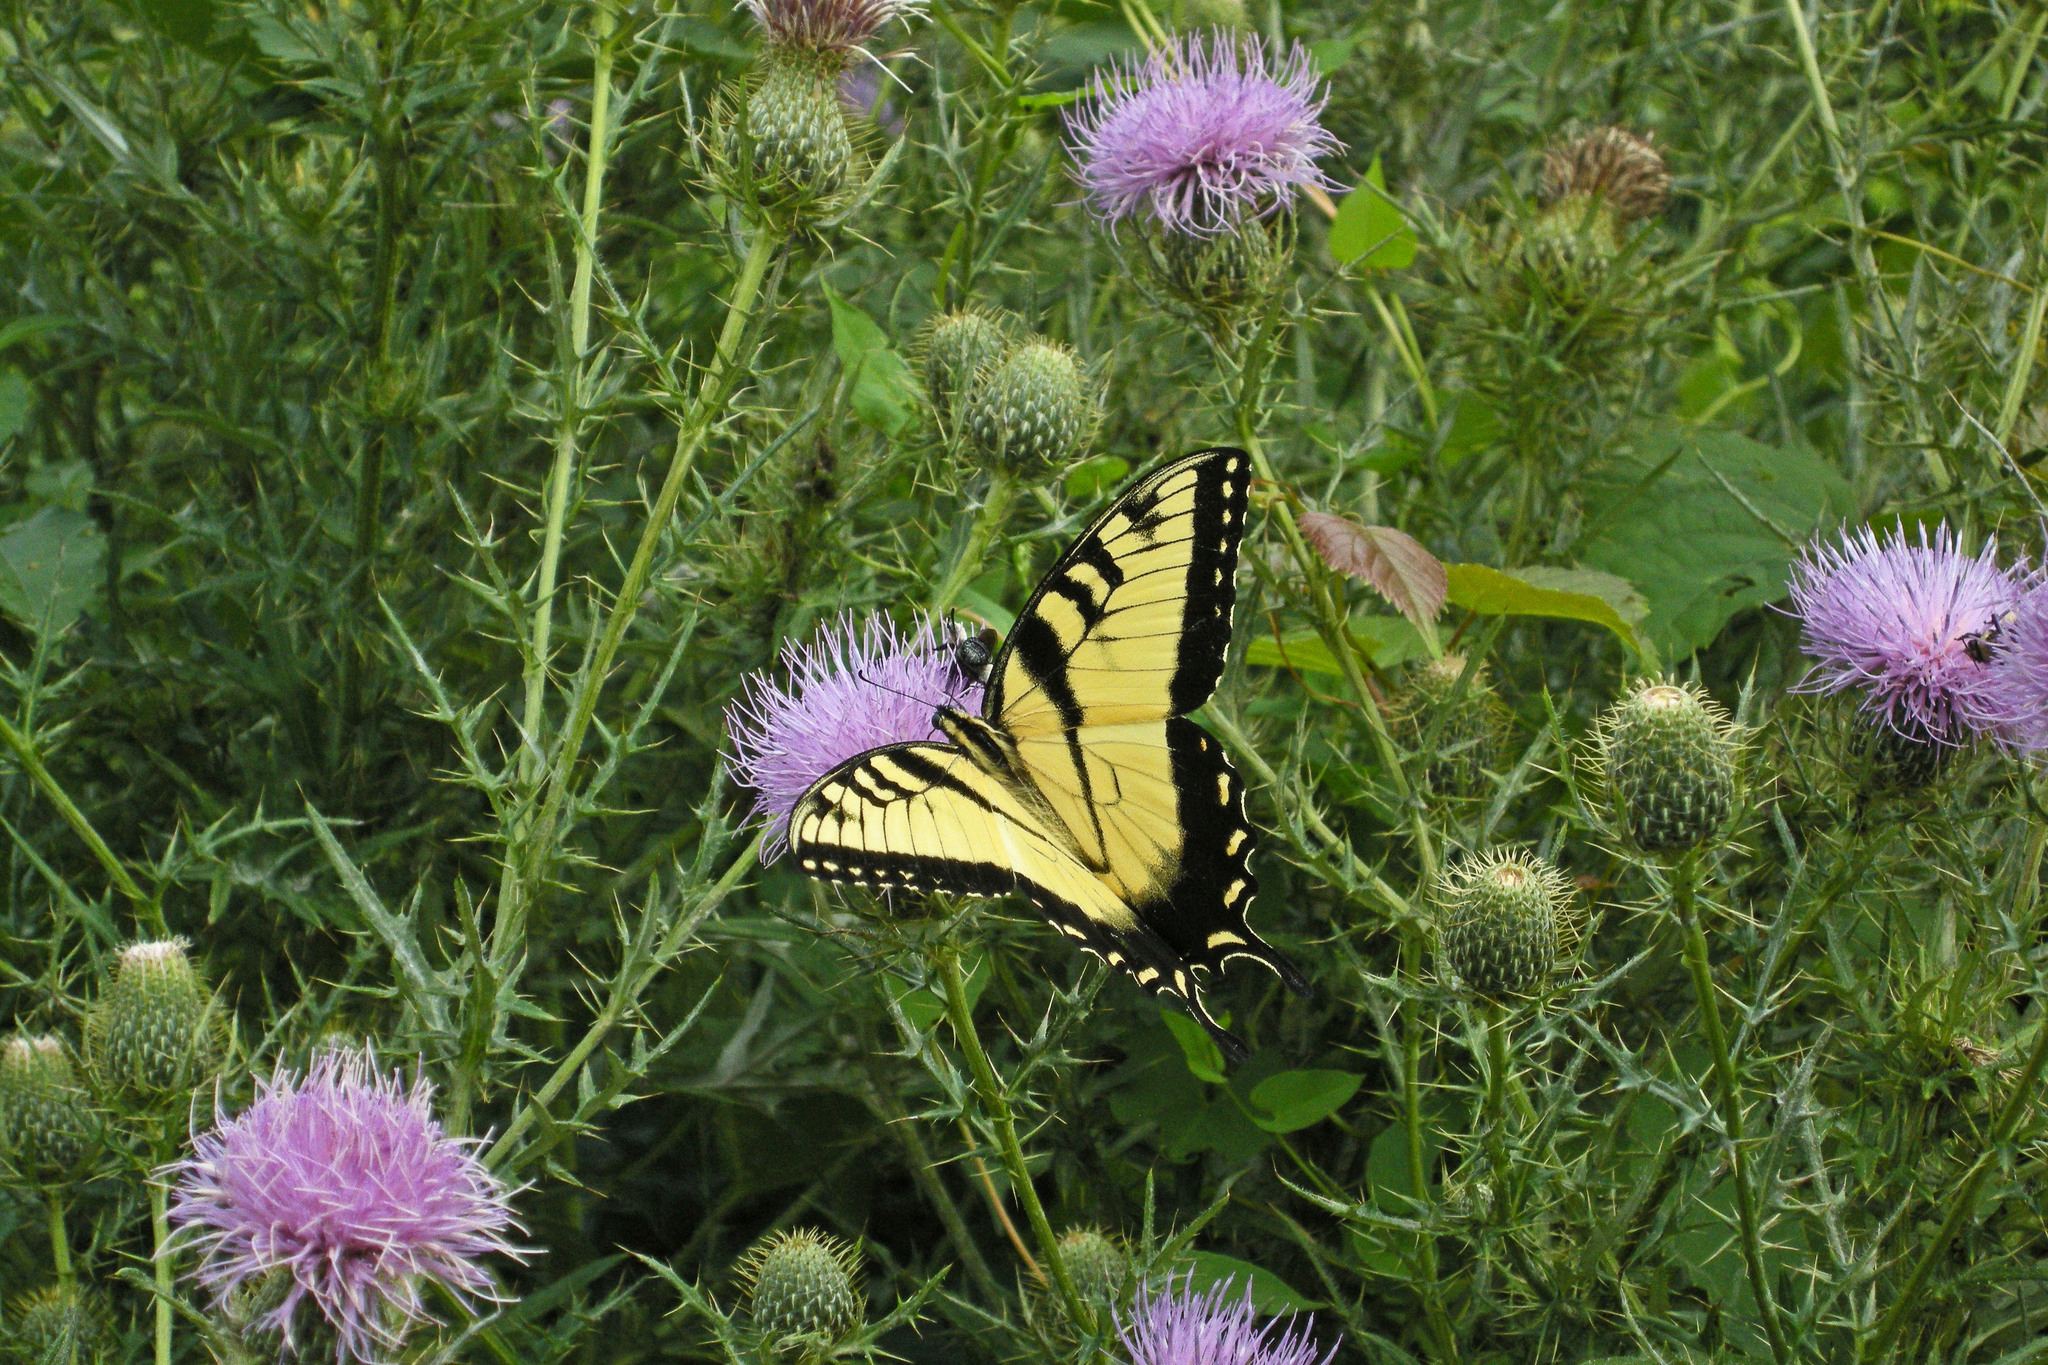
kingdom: Animalia
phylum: Arthropoda
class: Insecta
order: Lepidoptera
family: Papilionidae
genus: Papilio
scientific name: Papilio glaucus
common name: Tiger swallowtail
